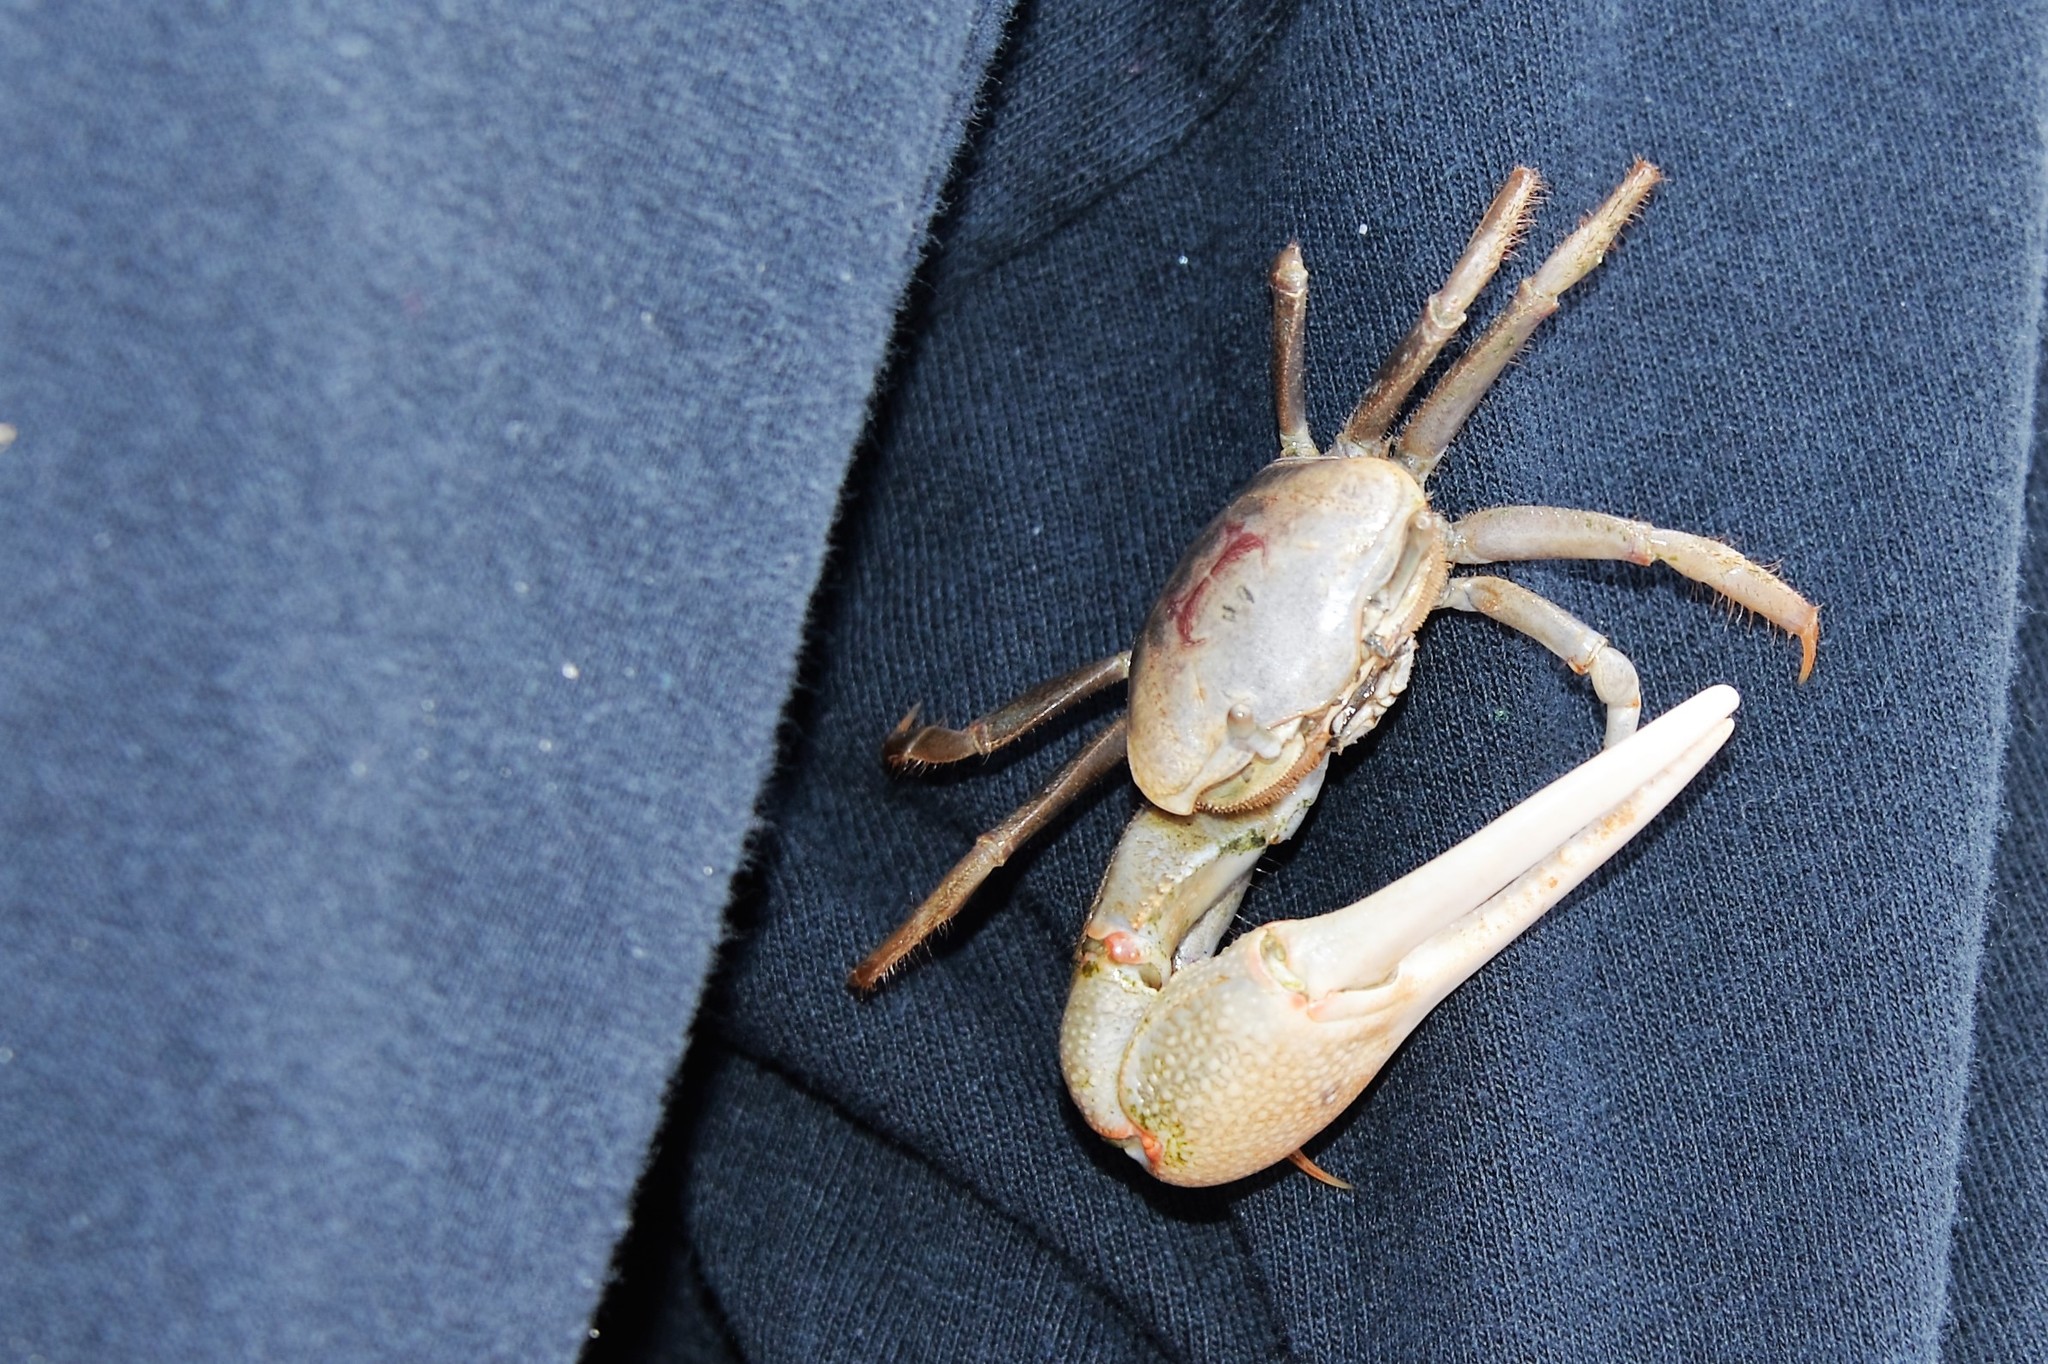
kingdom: Animalia
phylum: Arthropoda
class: Malacostraca
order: Decapoda
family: Ocypodidae
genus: Minuca
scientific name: Minuca minax
